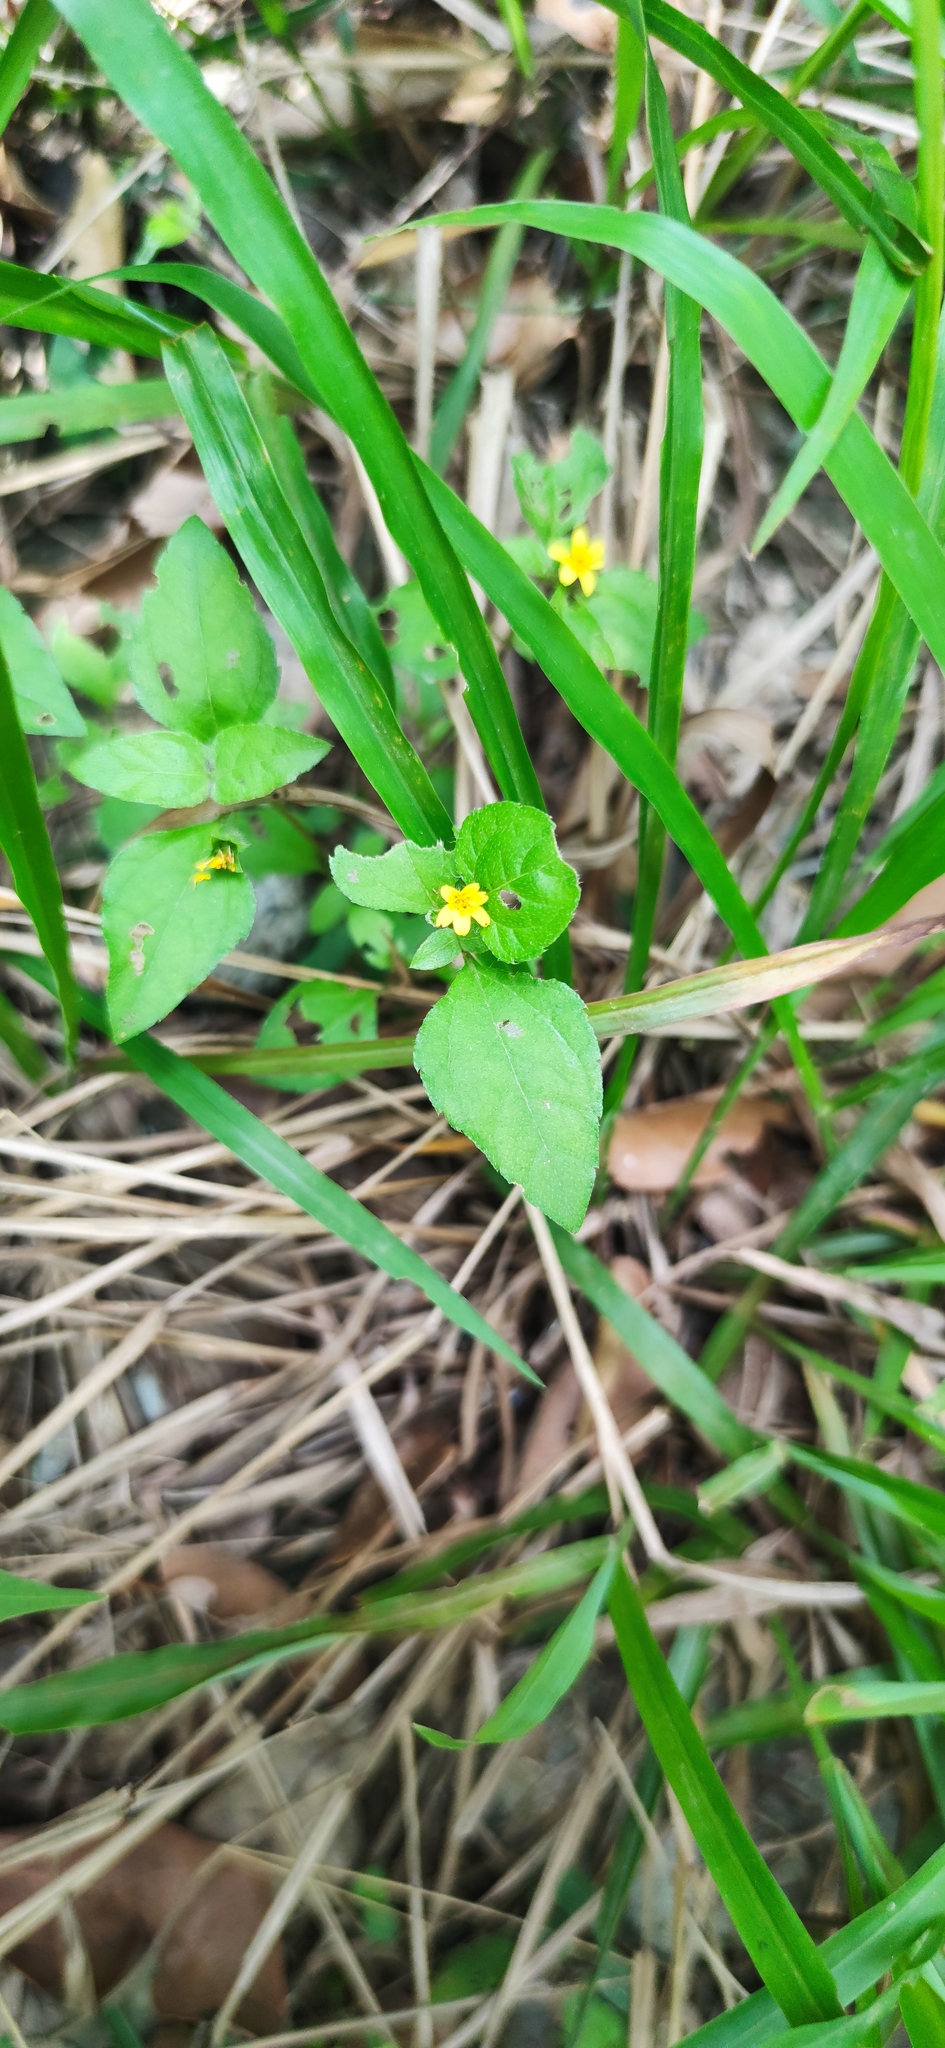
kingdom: Plantae
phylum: Tracheophyta
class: Magnoliopsida
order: Asterales
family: Asteraceae
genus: Calyptocarpus
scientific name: Calyptocarpus vialis
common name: Straggler daisy
